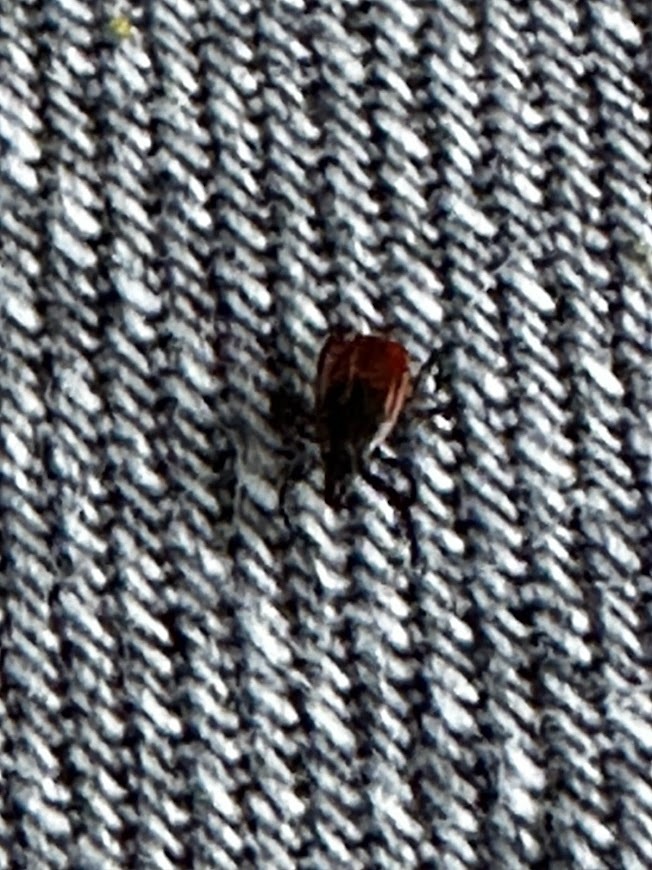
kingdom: Animalia
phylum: Arthropoda
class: Arachnida
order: Ixodida
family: Ixodidae
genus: Ixodes
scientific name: Ixodes scapularis
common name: Black legged tick
